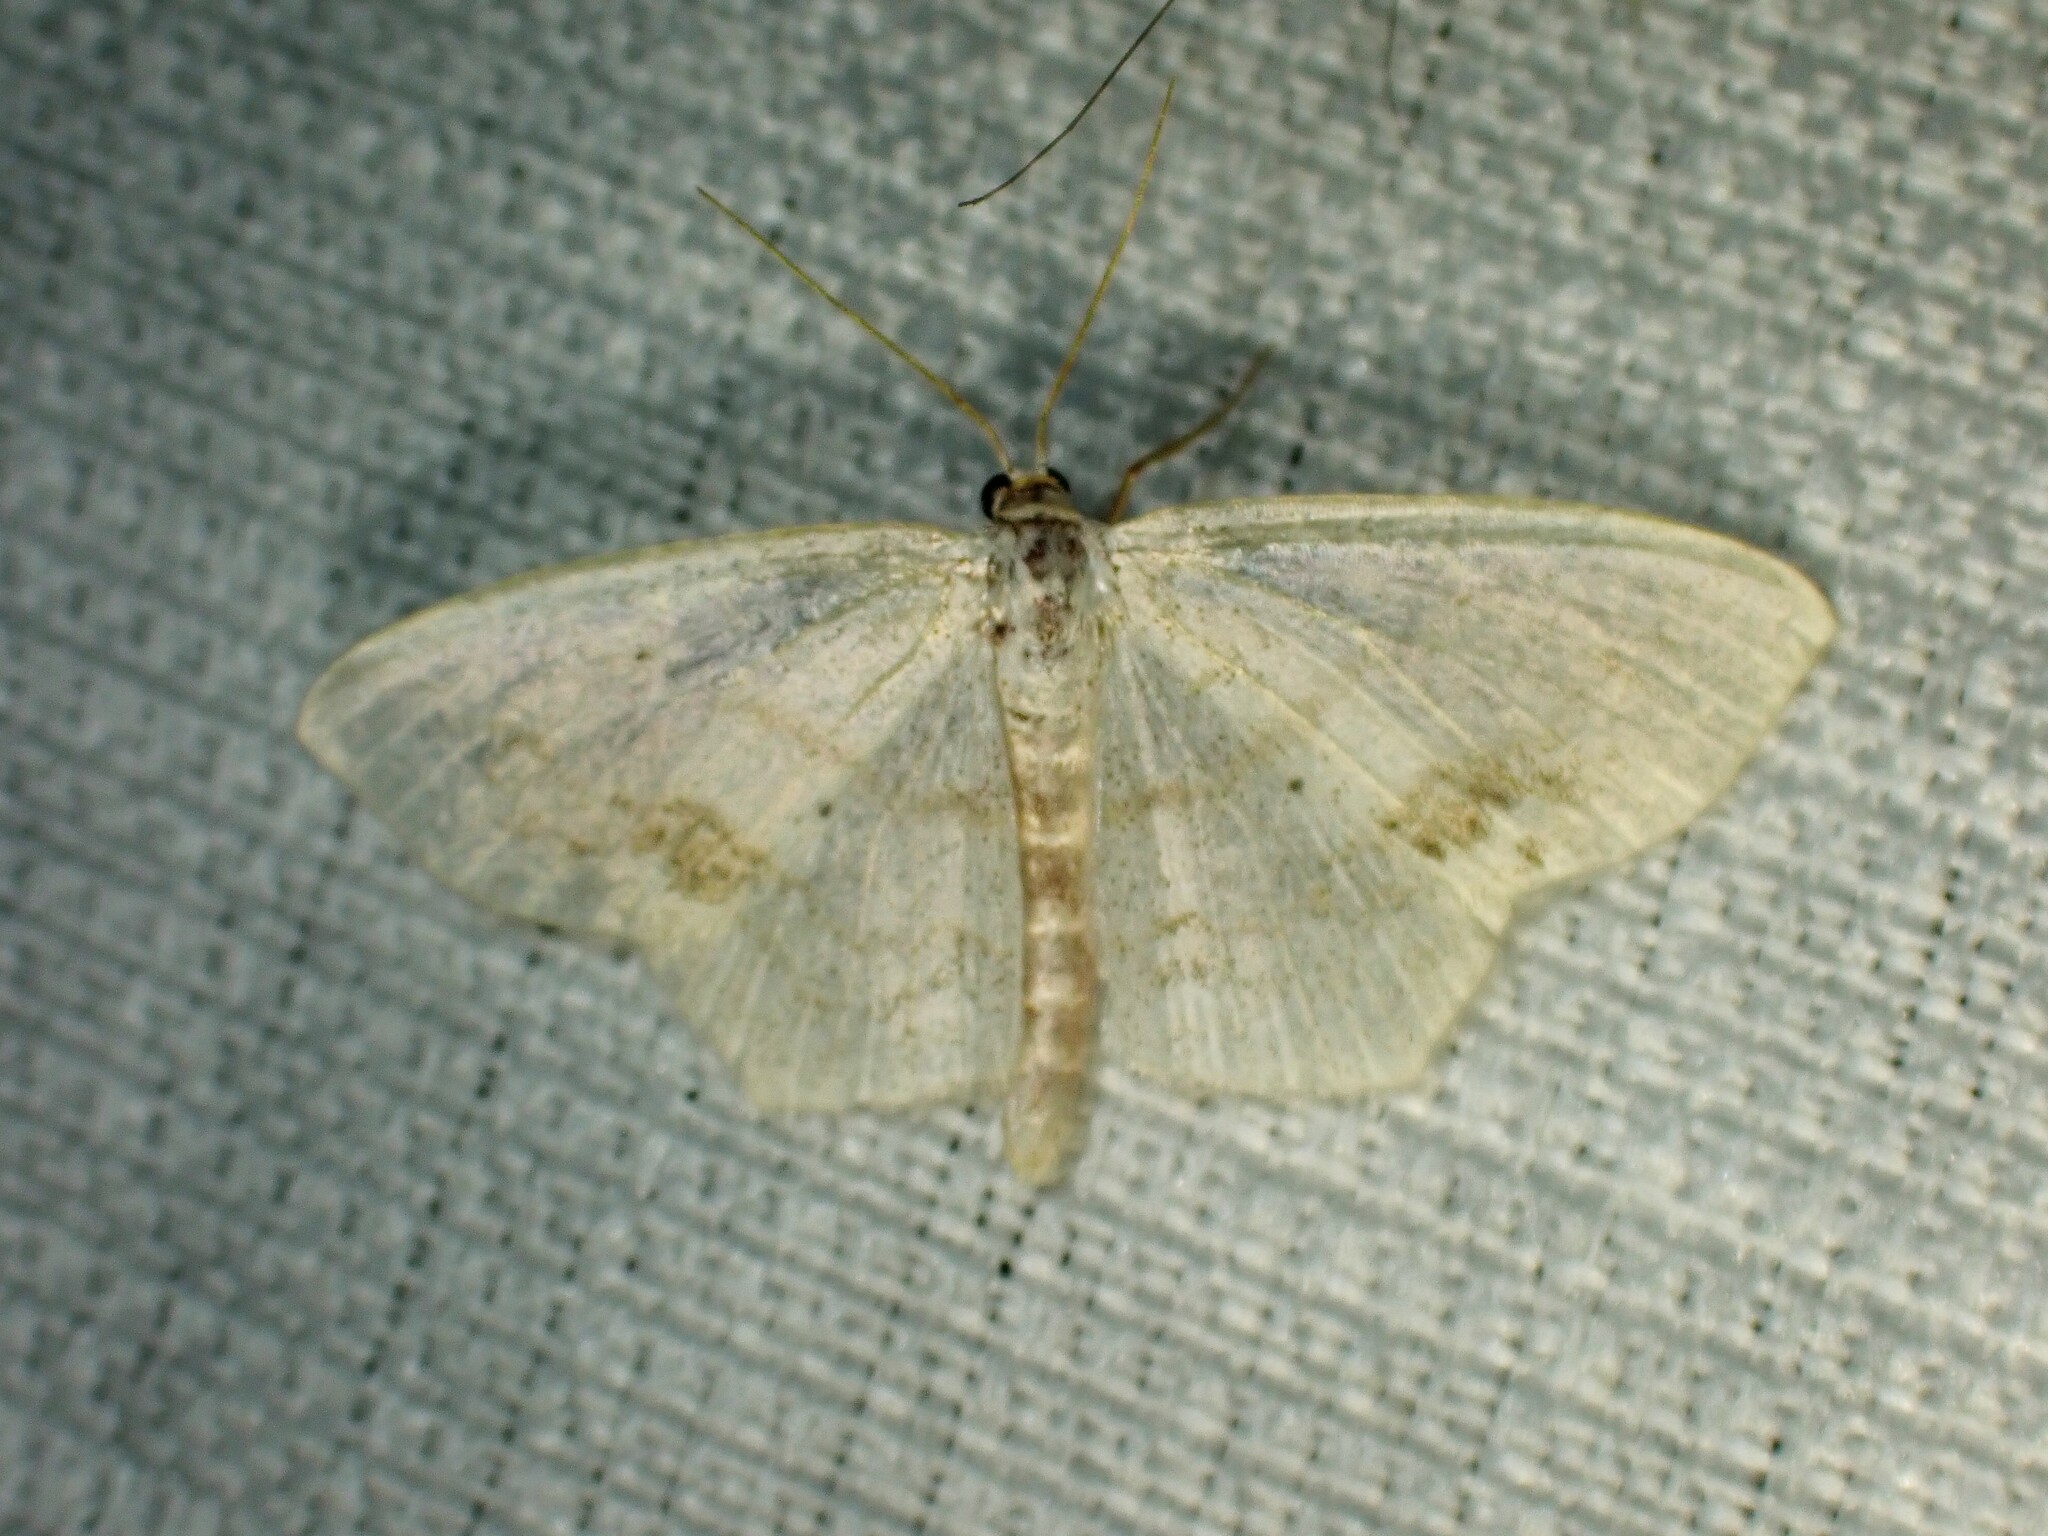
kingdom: Animalia
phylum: Arthropoda
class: Insecta
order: Lepidoptera
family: Geometridae
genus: Scopula
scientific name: Scopula limboundata
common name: Large lace border
